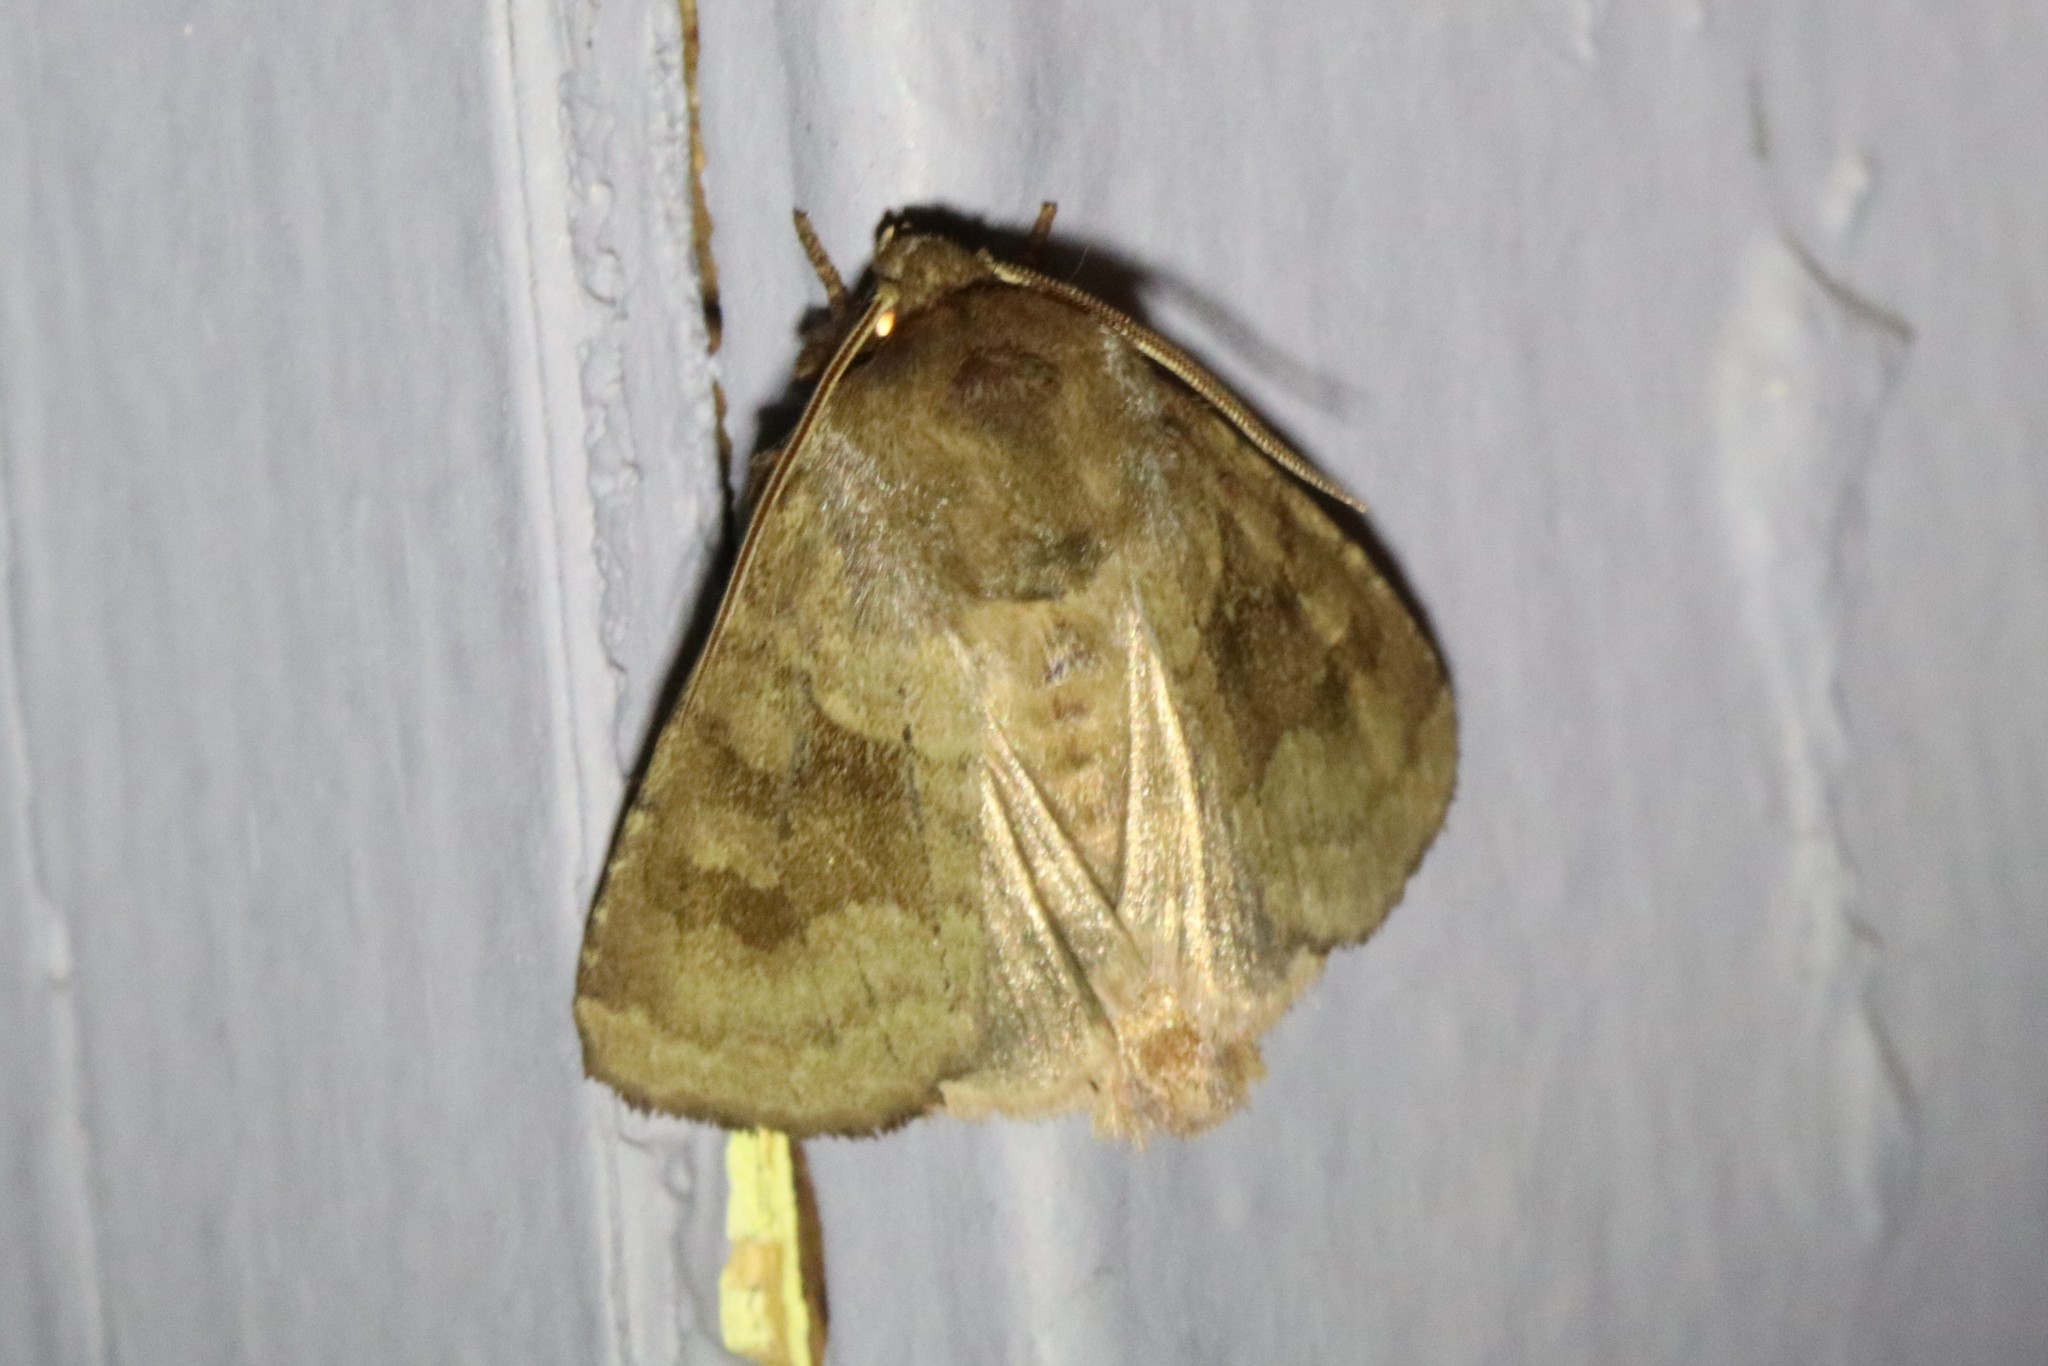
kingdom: Animalia
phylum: Arthropoda
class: Insecta
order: Lepidoptera
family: Noctuidae
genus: Nephelodes
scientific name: Nephelodes minians
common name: Bronzed cutworm
